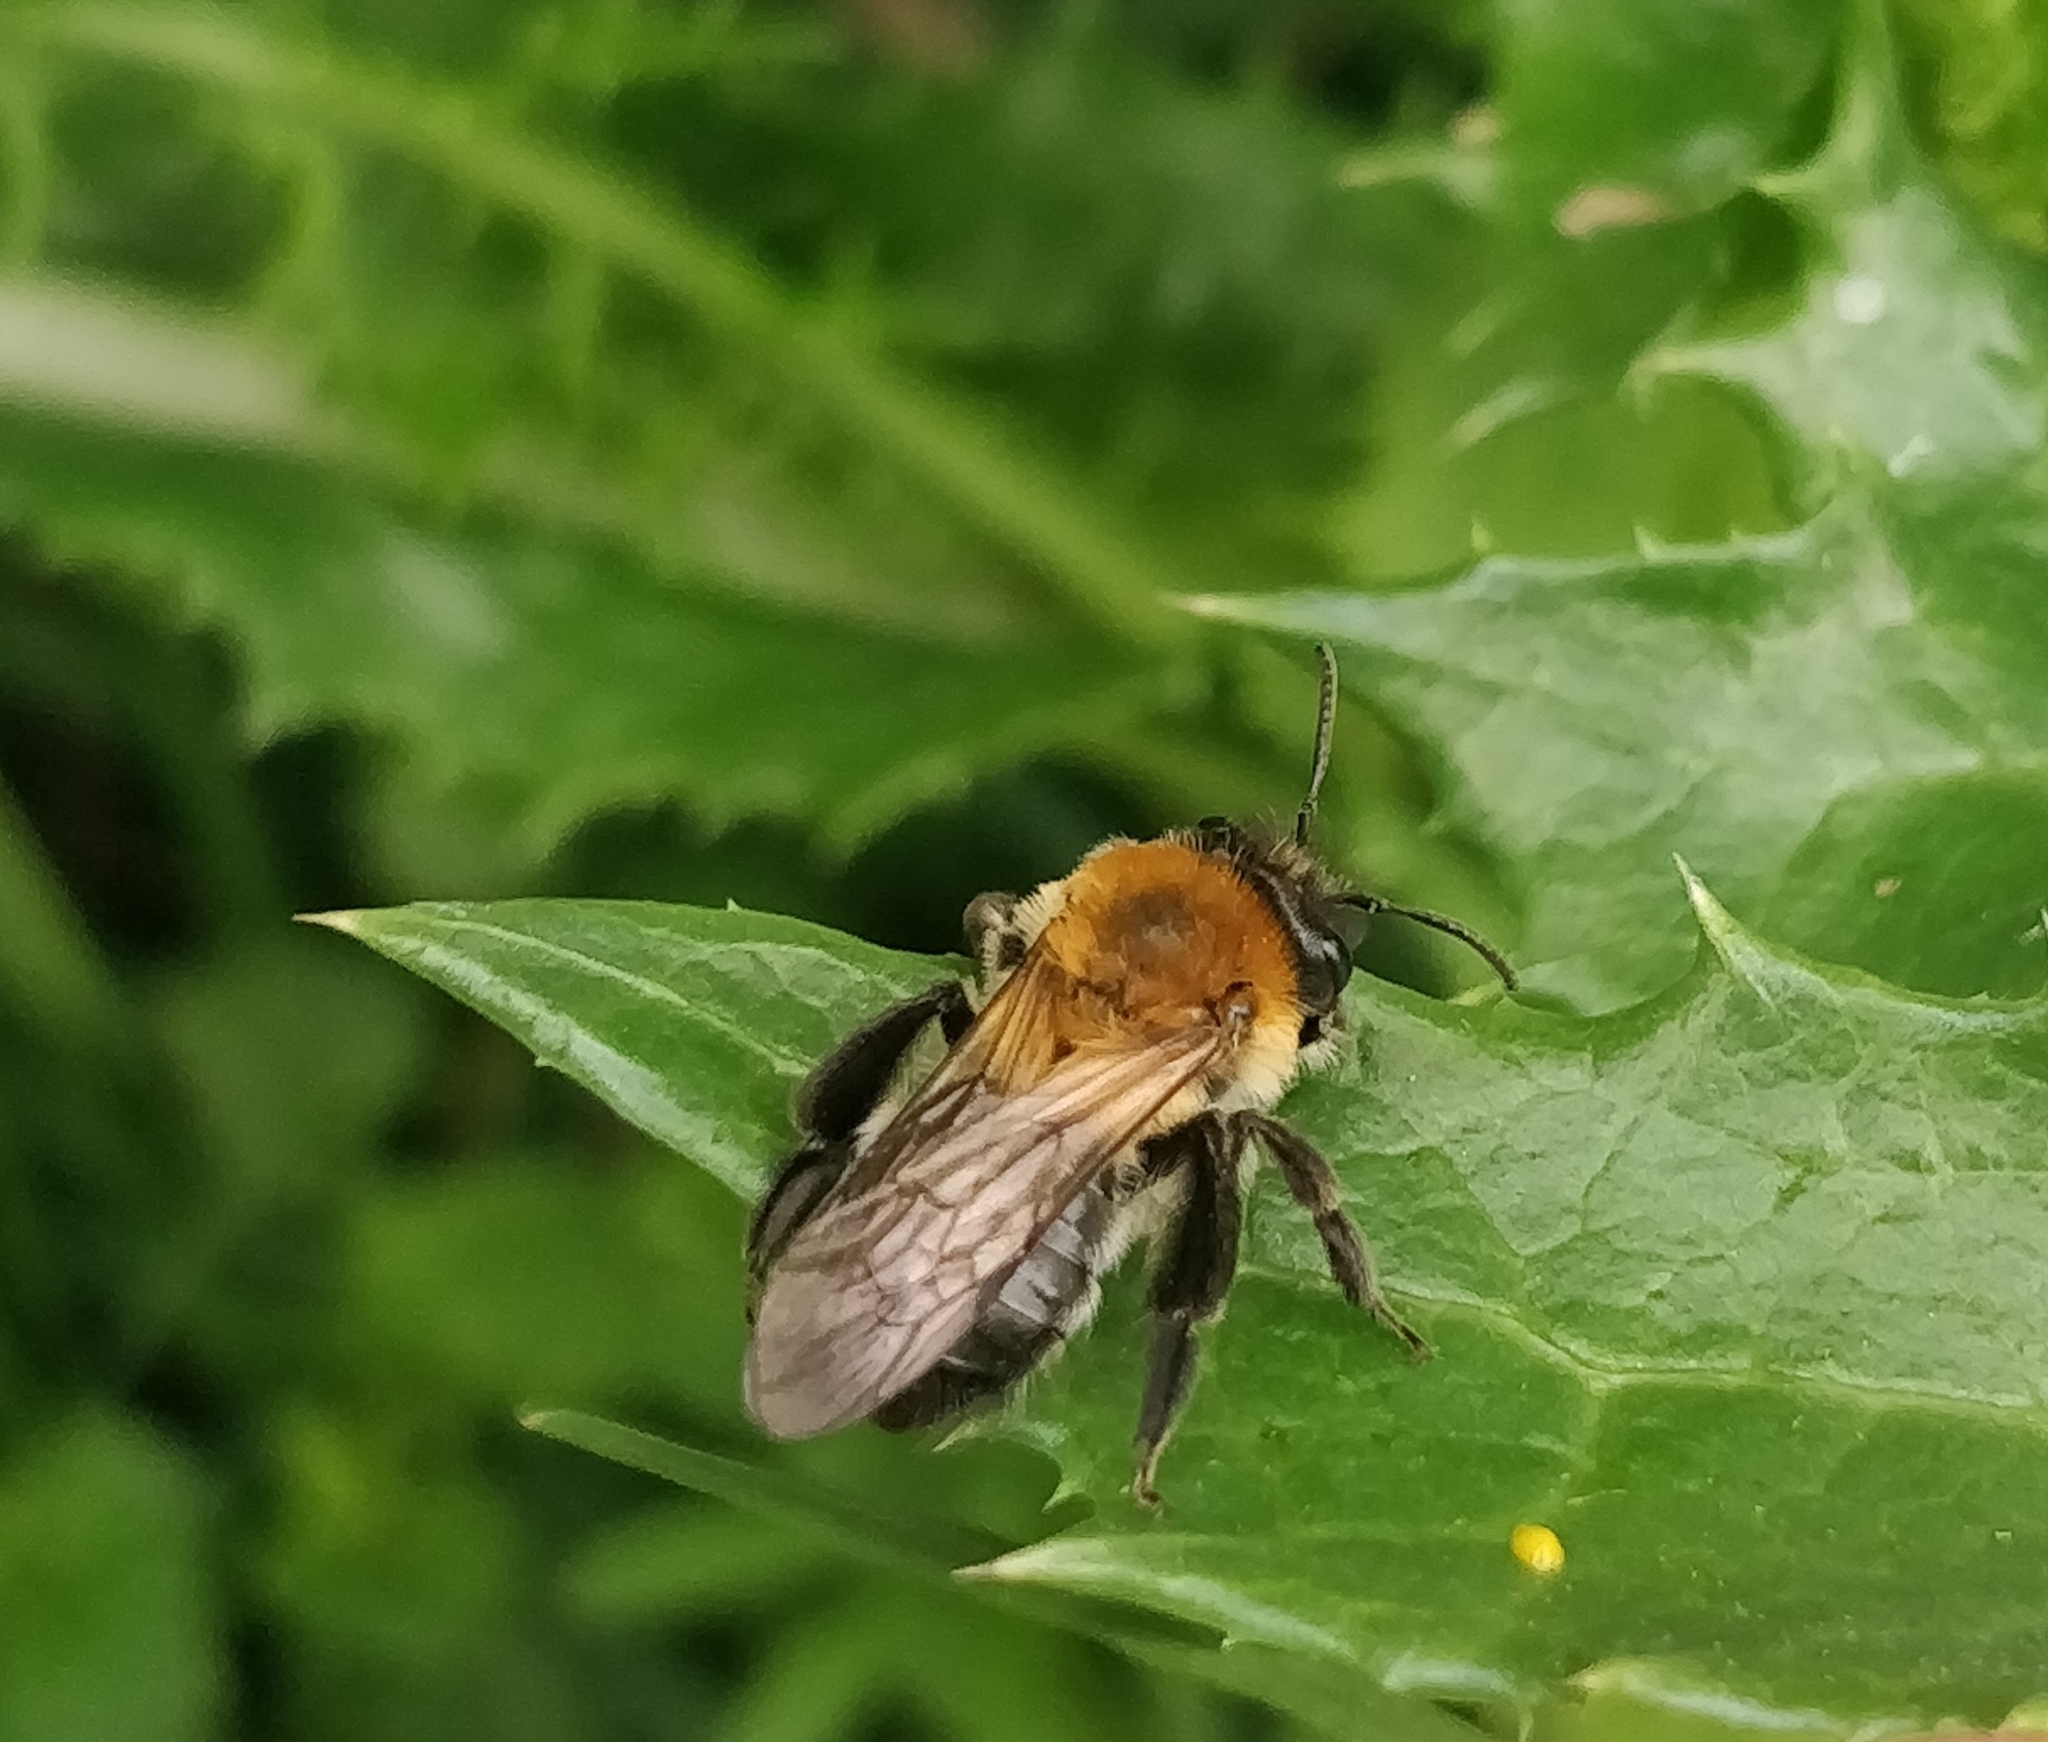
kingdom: Animalia
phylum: Arthropoda
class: Insecta
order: Hymenoptera
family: Andrenidae
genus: Andrena
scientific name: Andrena nitida
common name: Grey-patched mining bee
